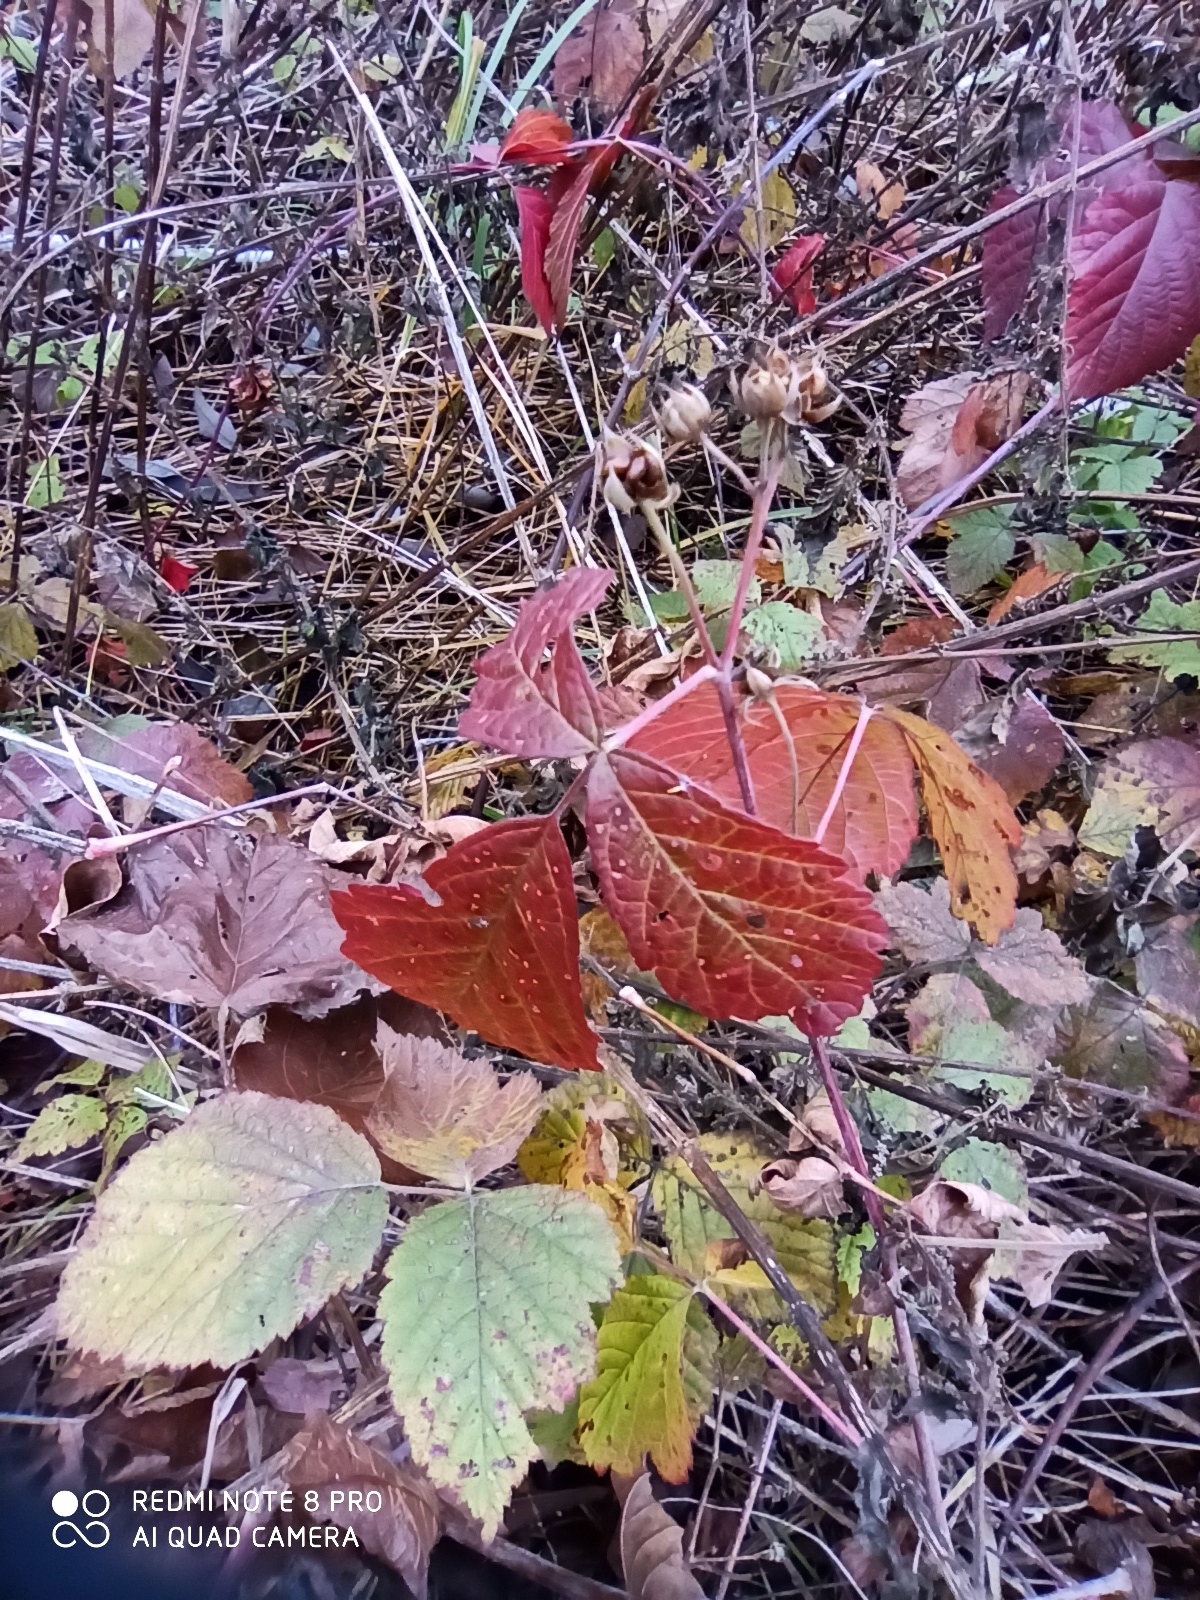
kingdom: Plantae
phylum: Tracheophyta
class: Magnoliopsida
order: Rosales
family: Rosaceae
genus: Rubus
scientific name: Rubus caesius
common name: Dewberry
